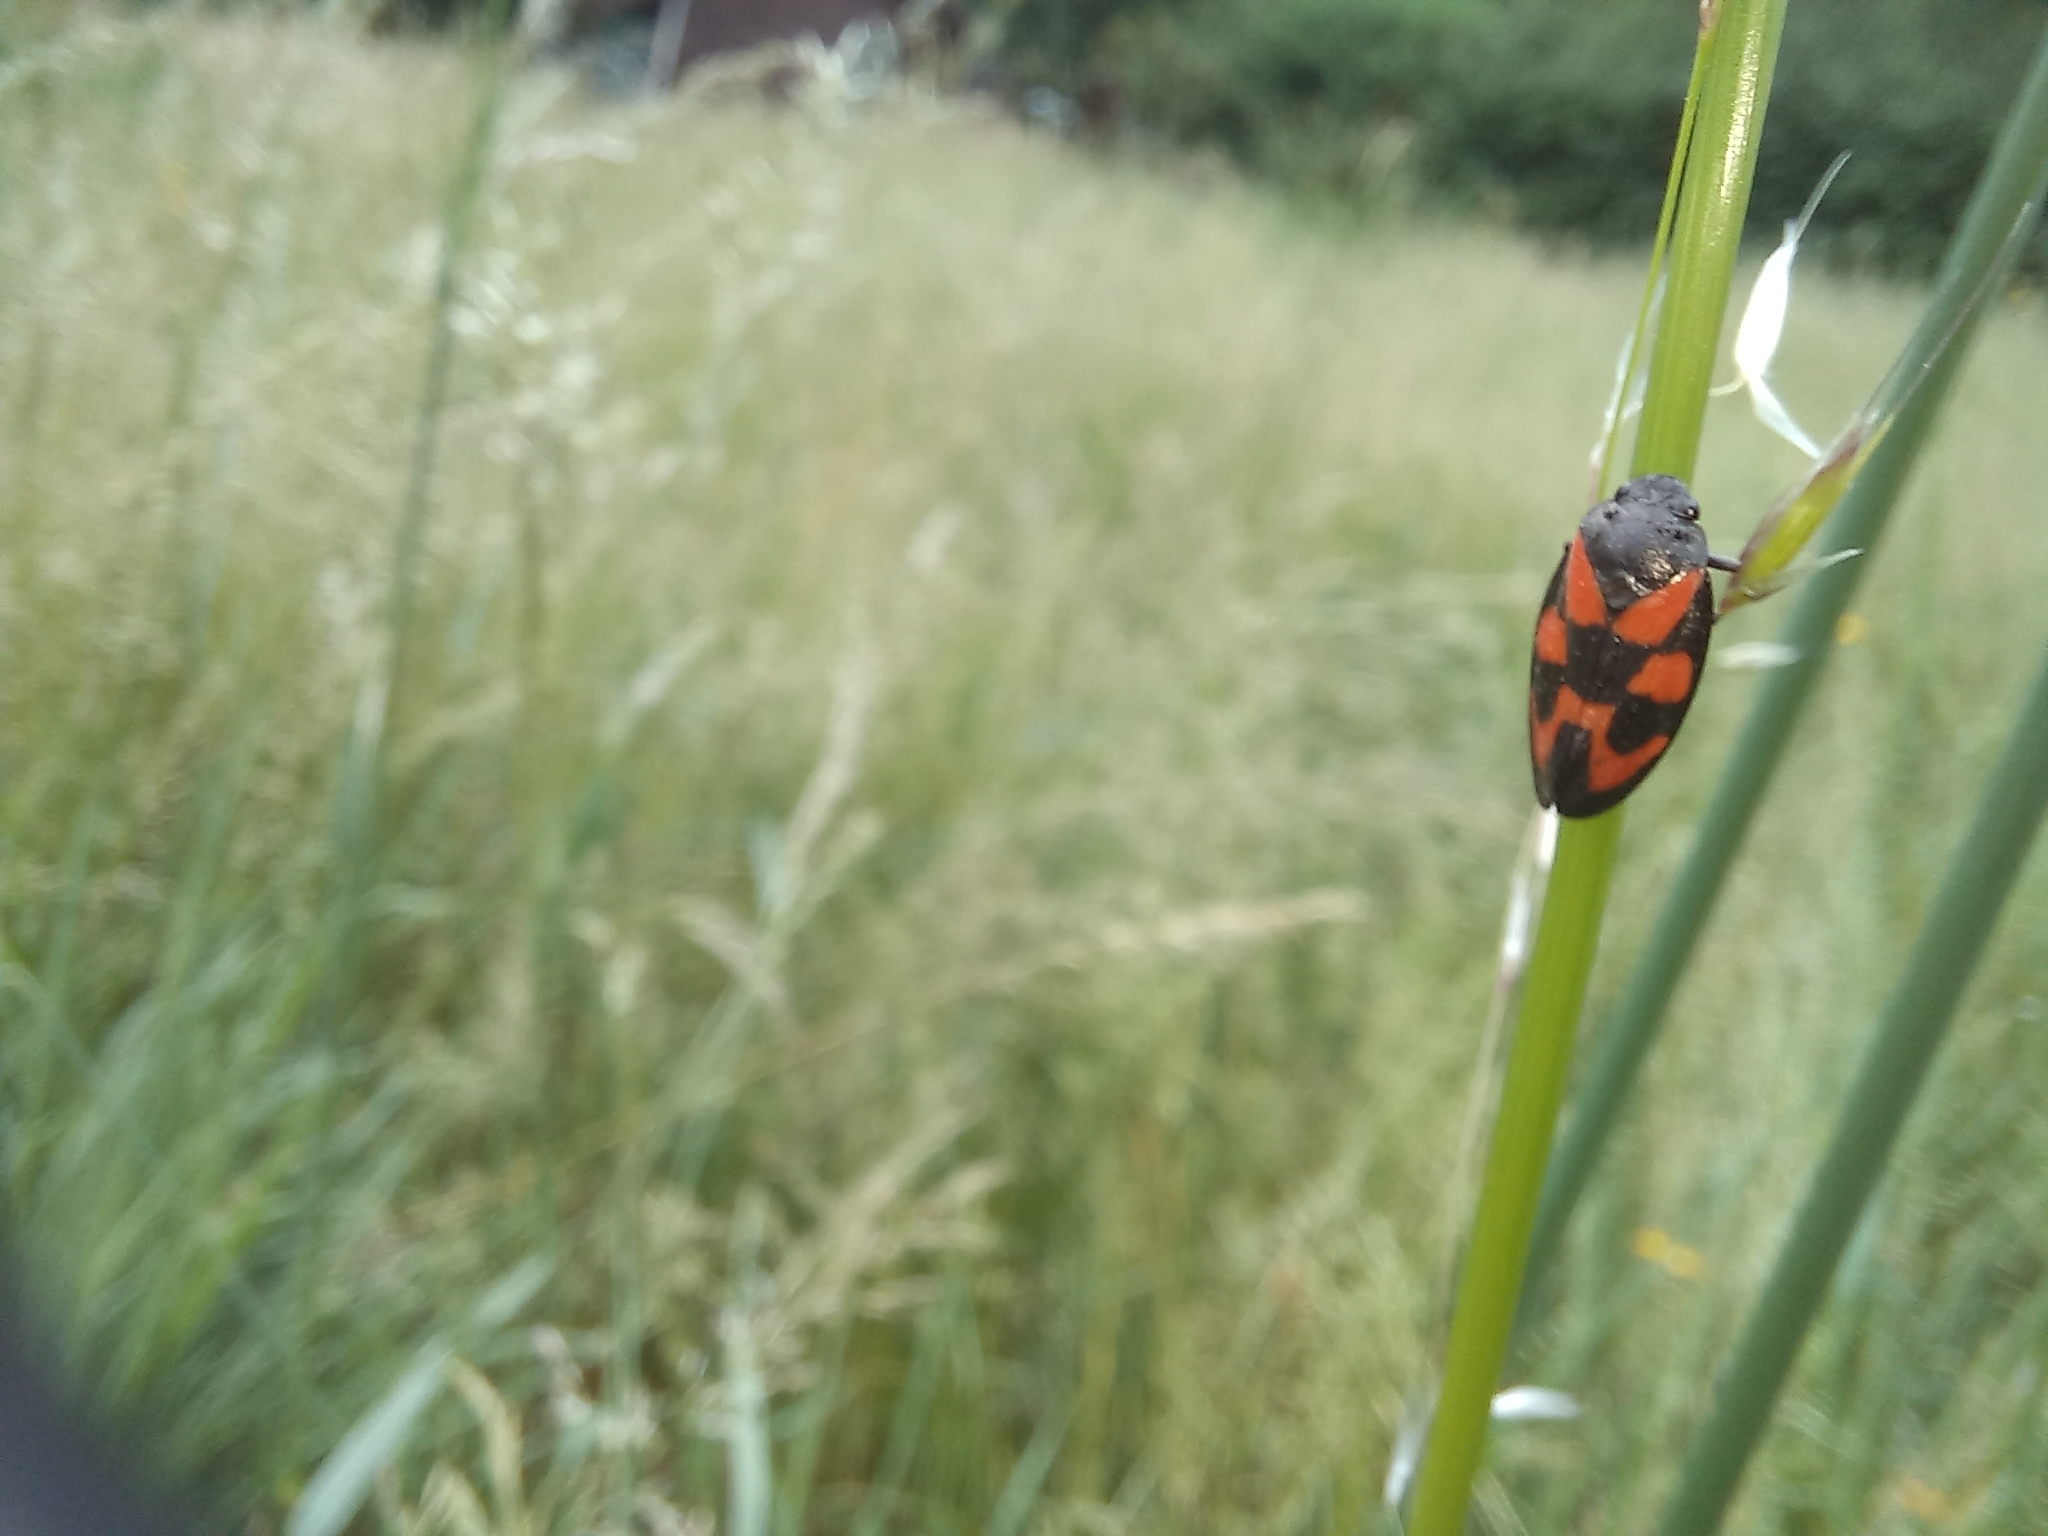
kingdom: Animalia
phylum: Arthropoda
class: Insecta
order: Hemiptera
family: Cercopidae
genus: Cercopis
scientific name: Cercopis vulnerata
